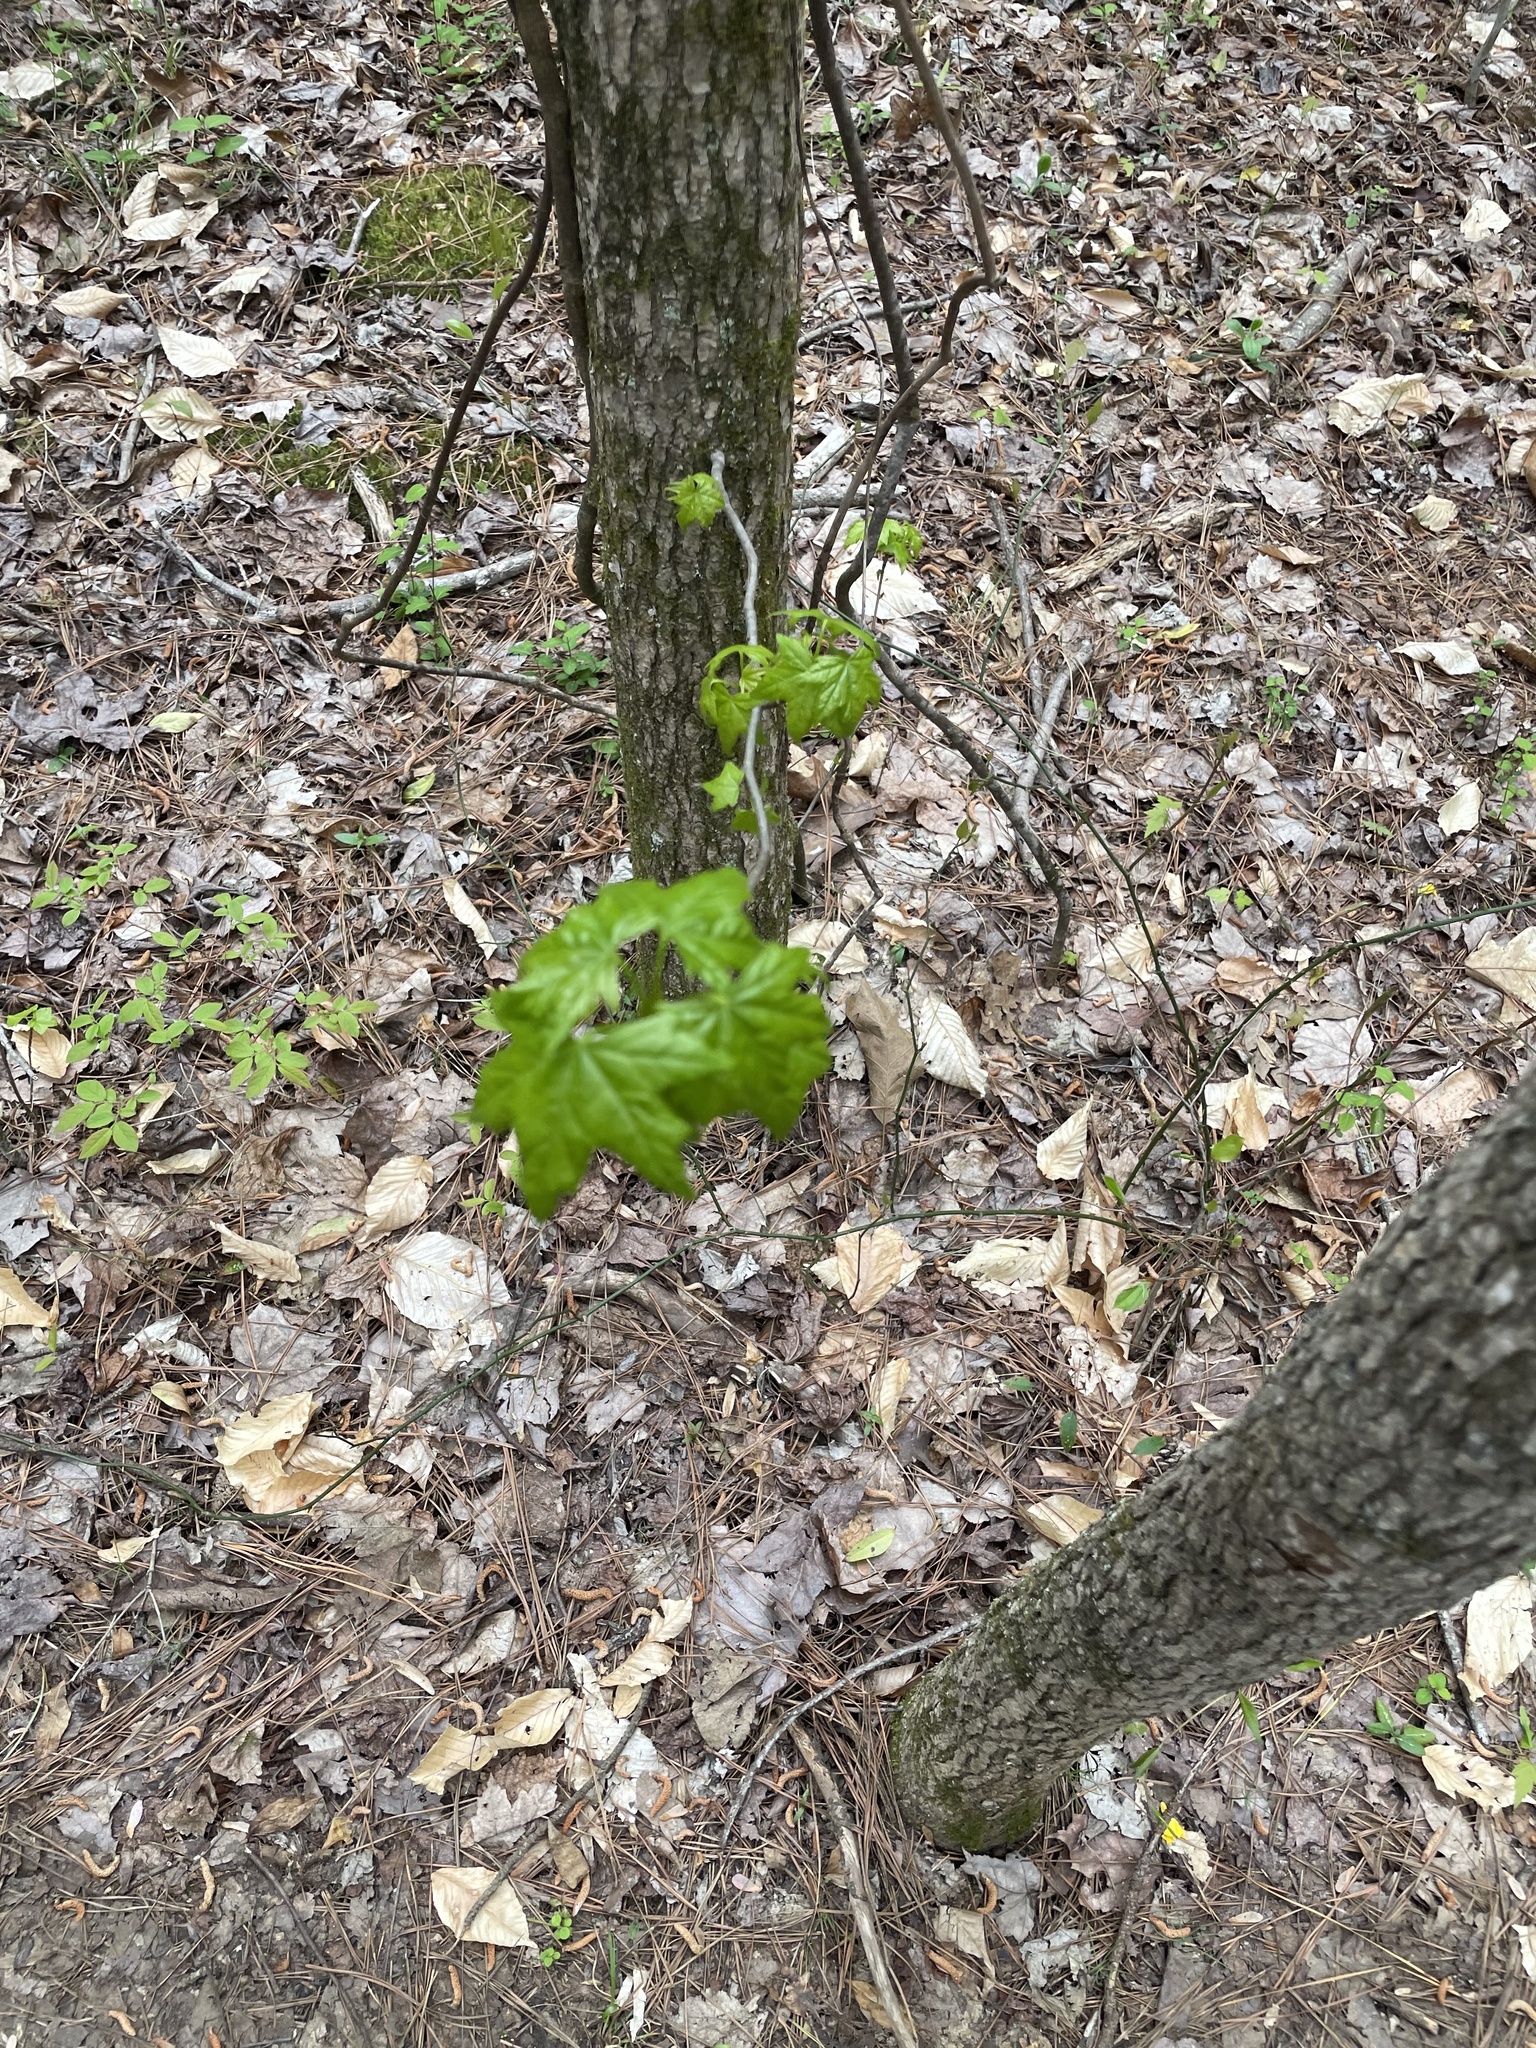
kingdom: Plantae
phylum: Tracheophyta
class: Magnoliopsida
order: Saxifragales
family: Altingiaceae
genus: Liquidambar
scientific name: Liquidambar styraciflua
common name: Sweet gum
